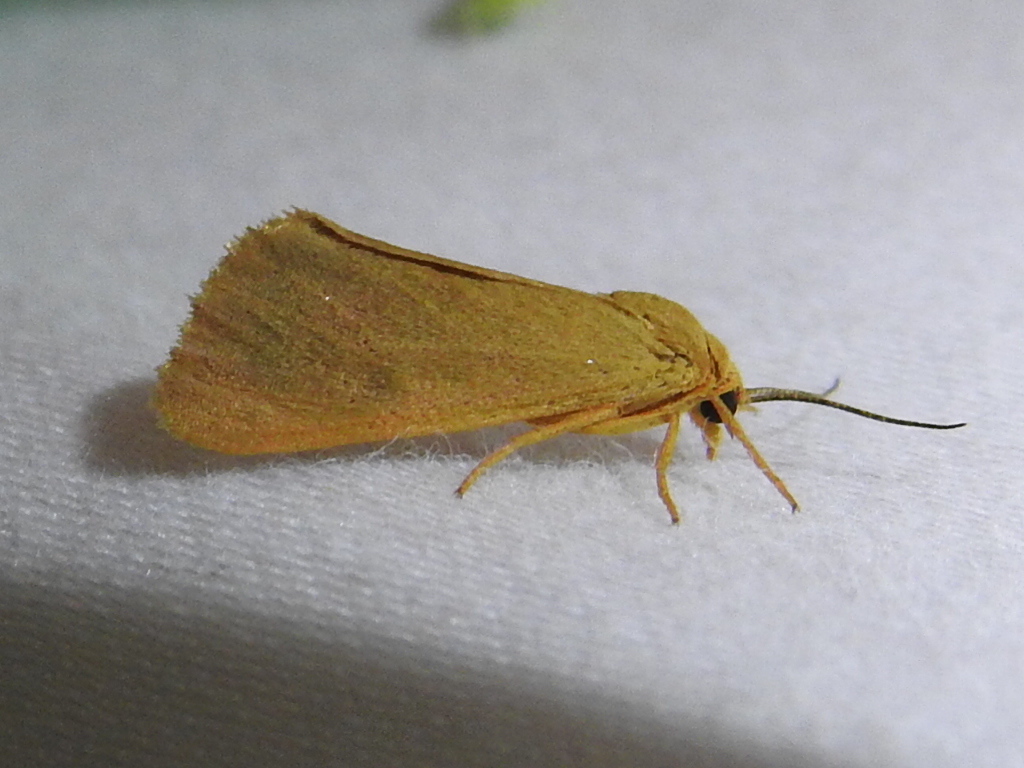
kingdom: Animalia
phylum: Arthropoda
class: Insecta
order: Lepidoptera
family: Erebidae
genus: Virbia
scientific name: Virbia aurantiaca
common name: Orange virbia moth
